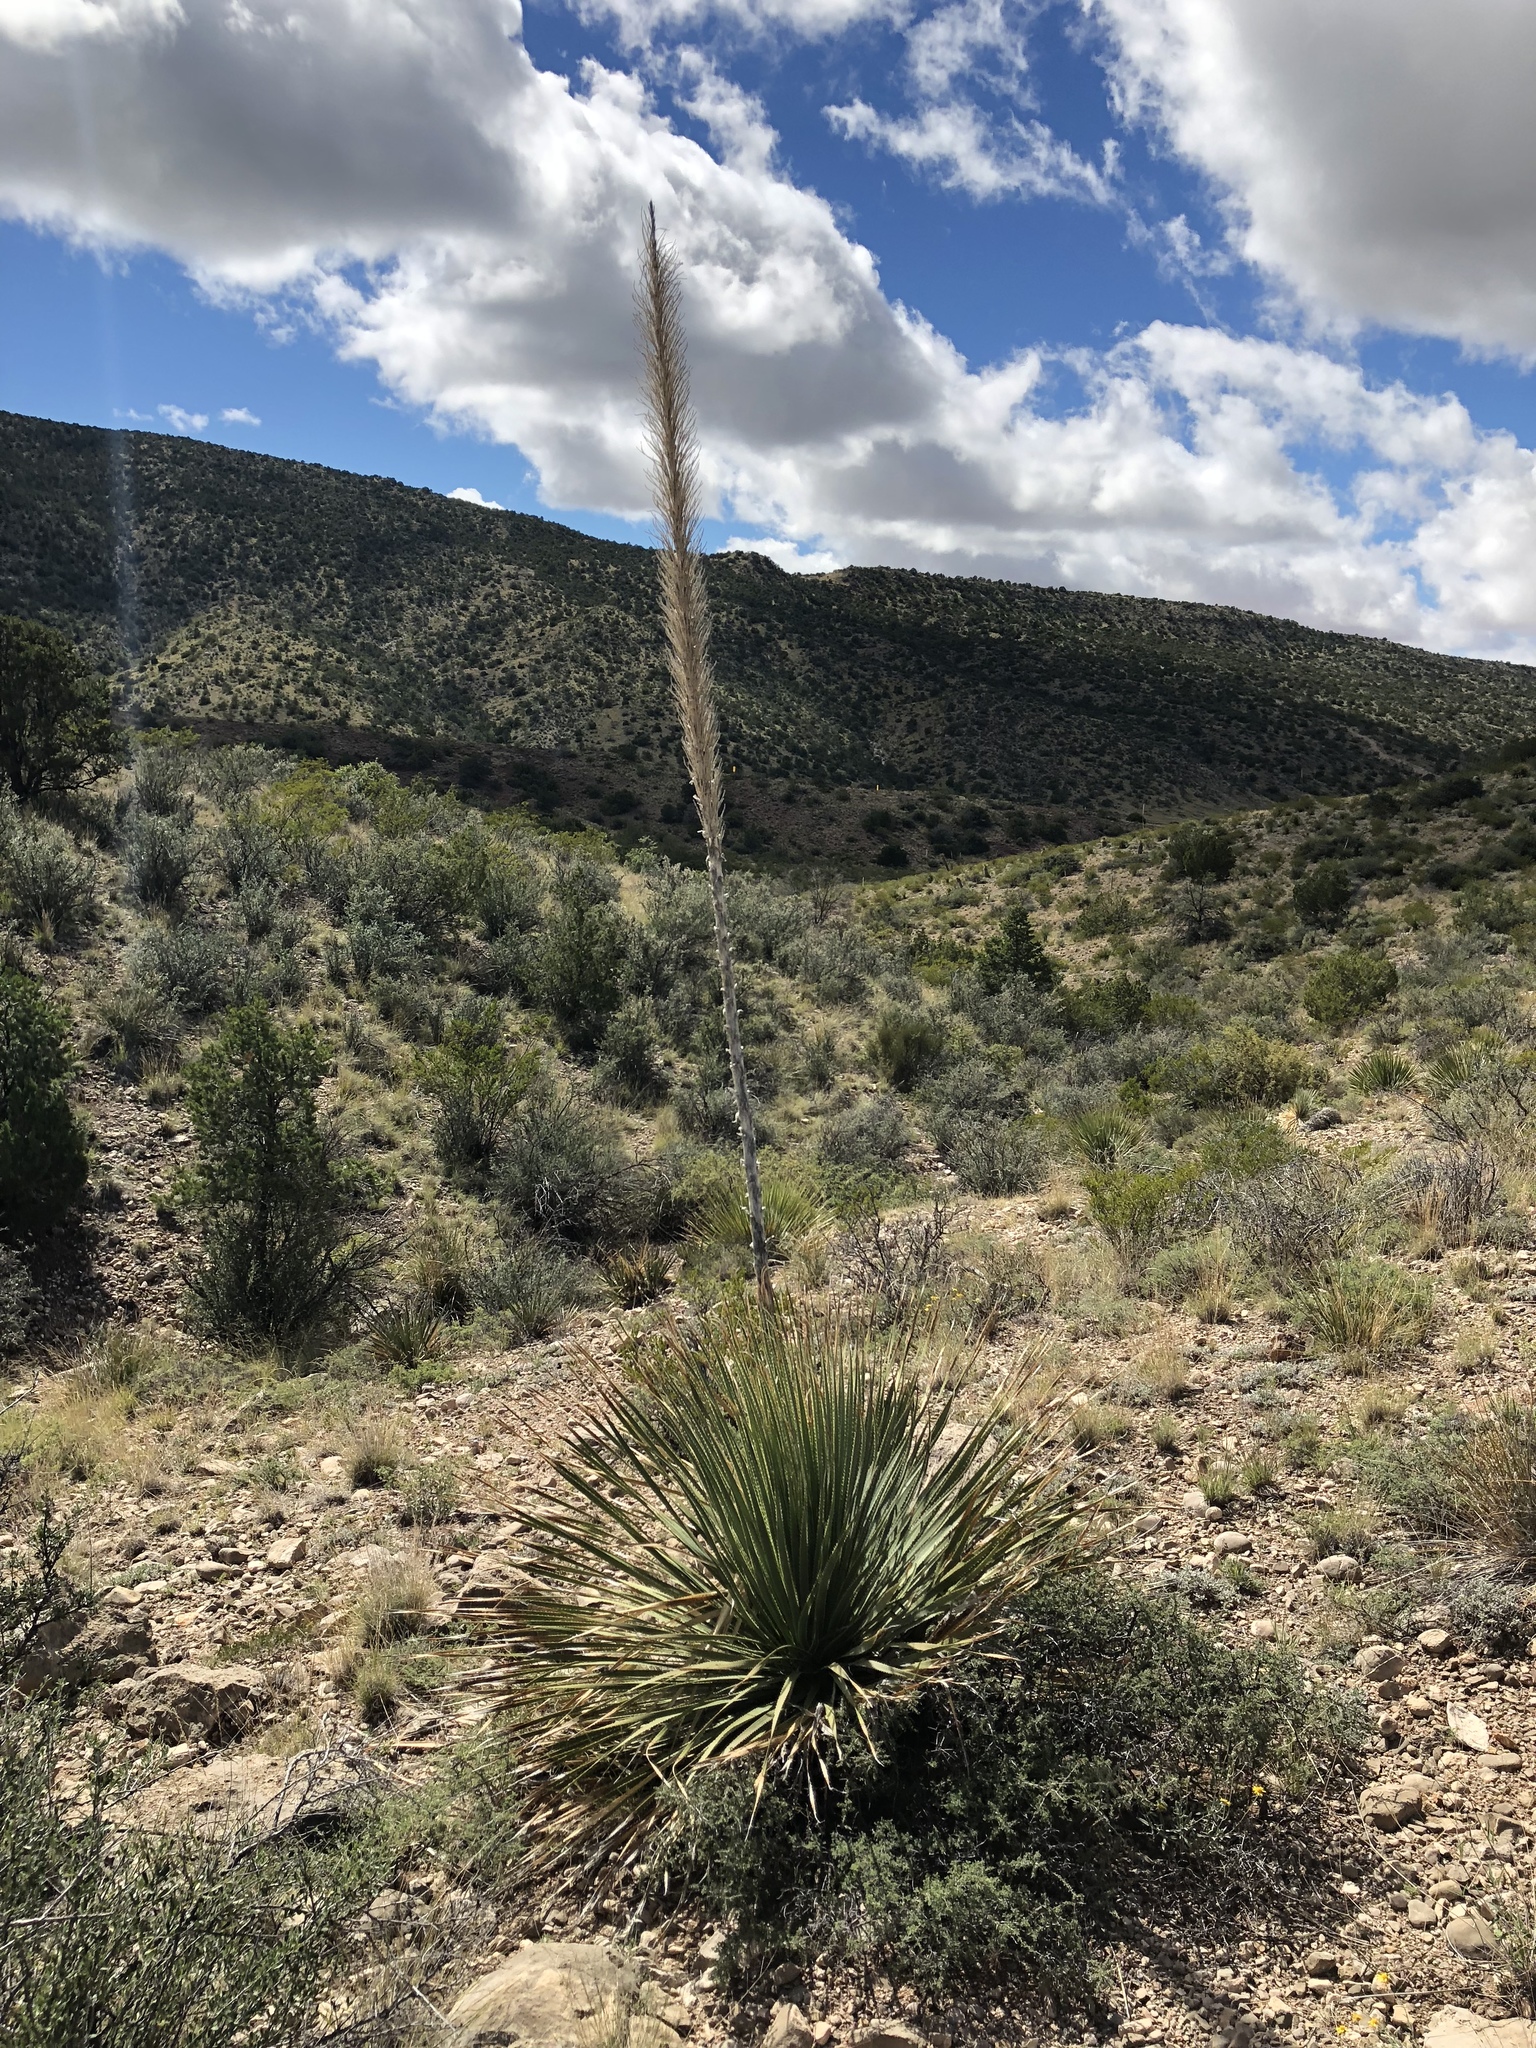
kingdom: Plantae
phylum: Tracheophyta
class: Liliopsida
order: Asparagales
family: Asparagaceae
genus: Dasylirion
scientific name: Dasylirion wheeleri
